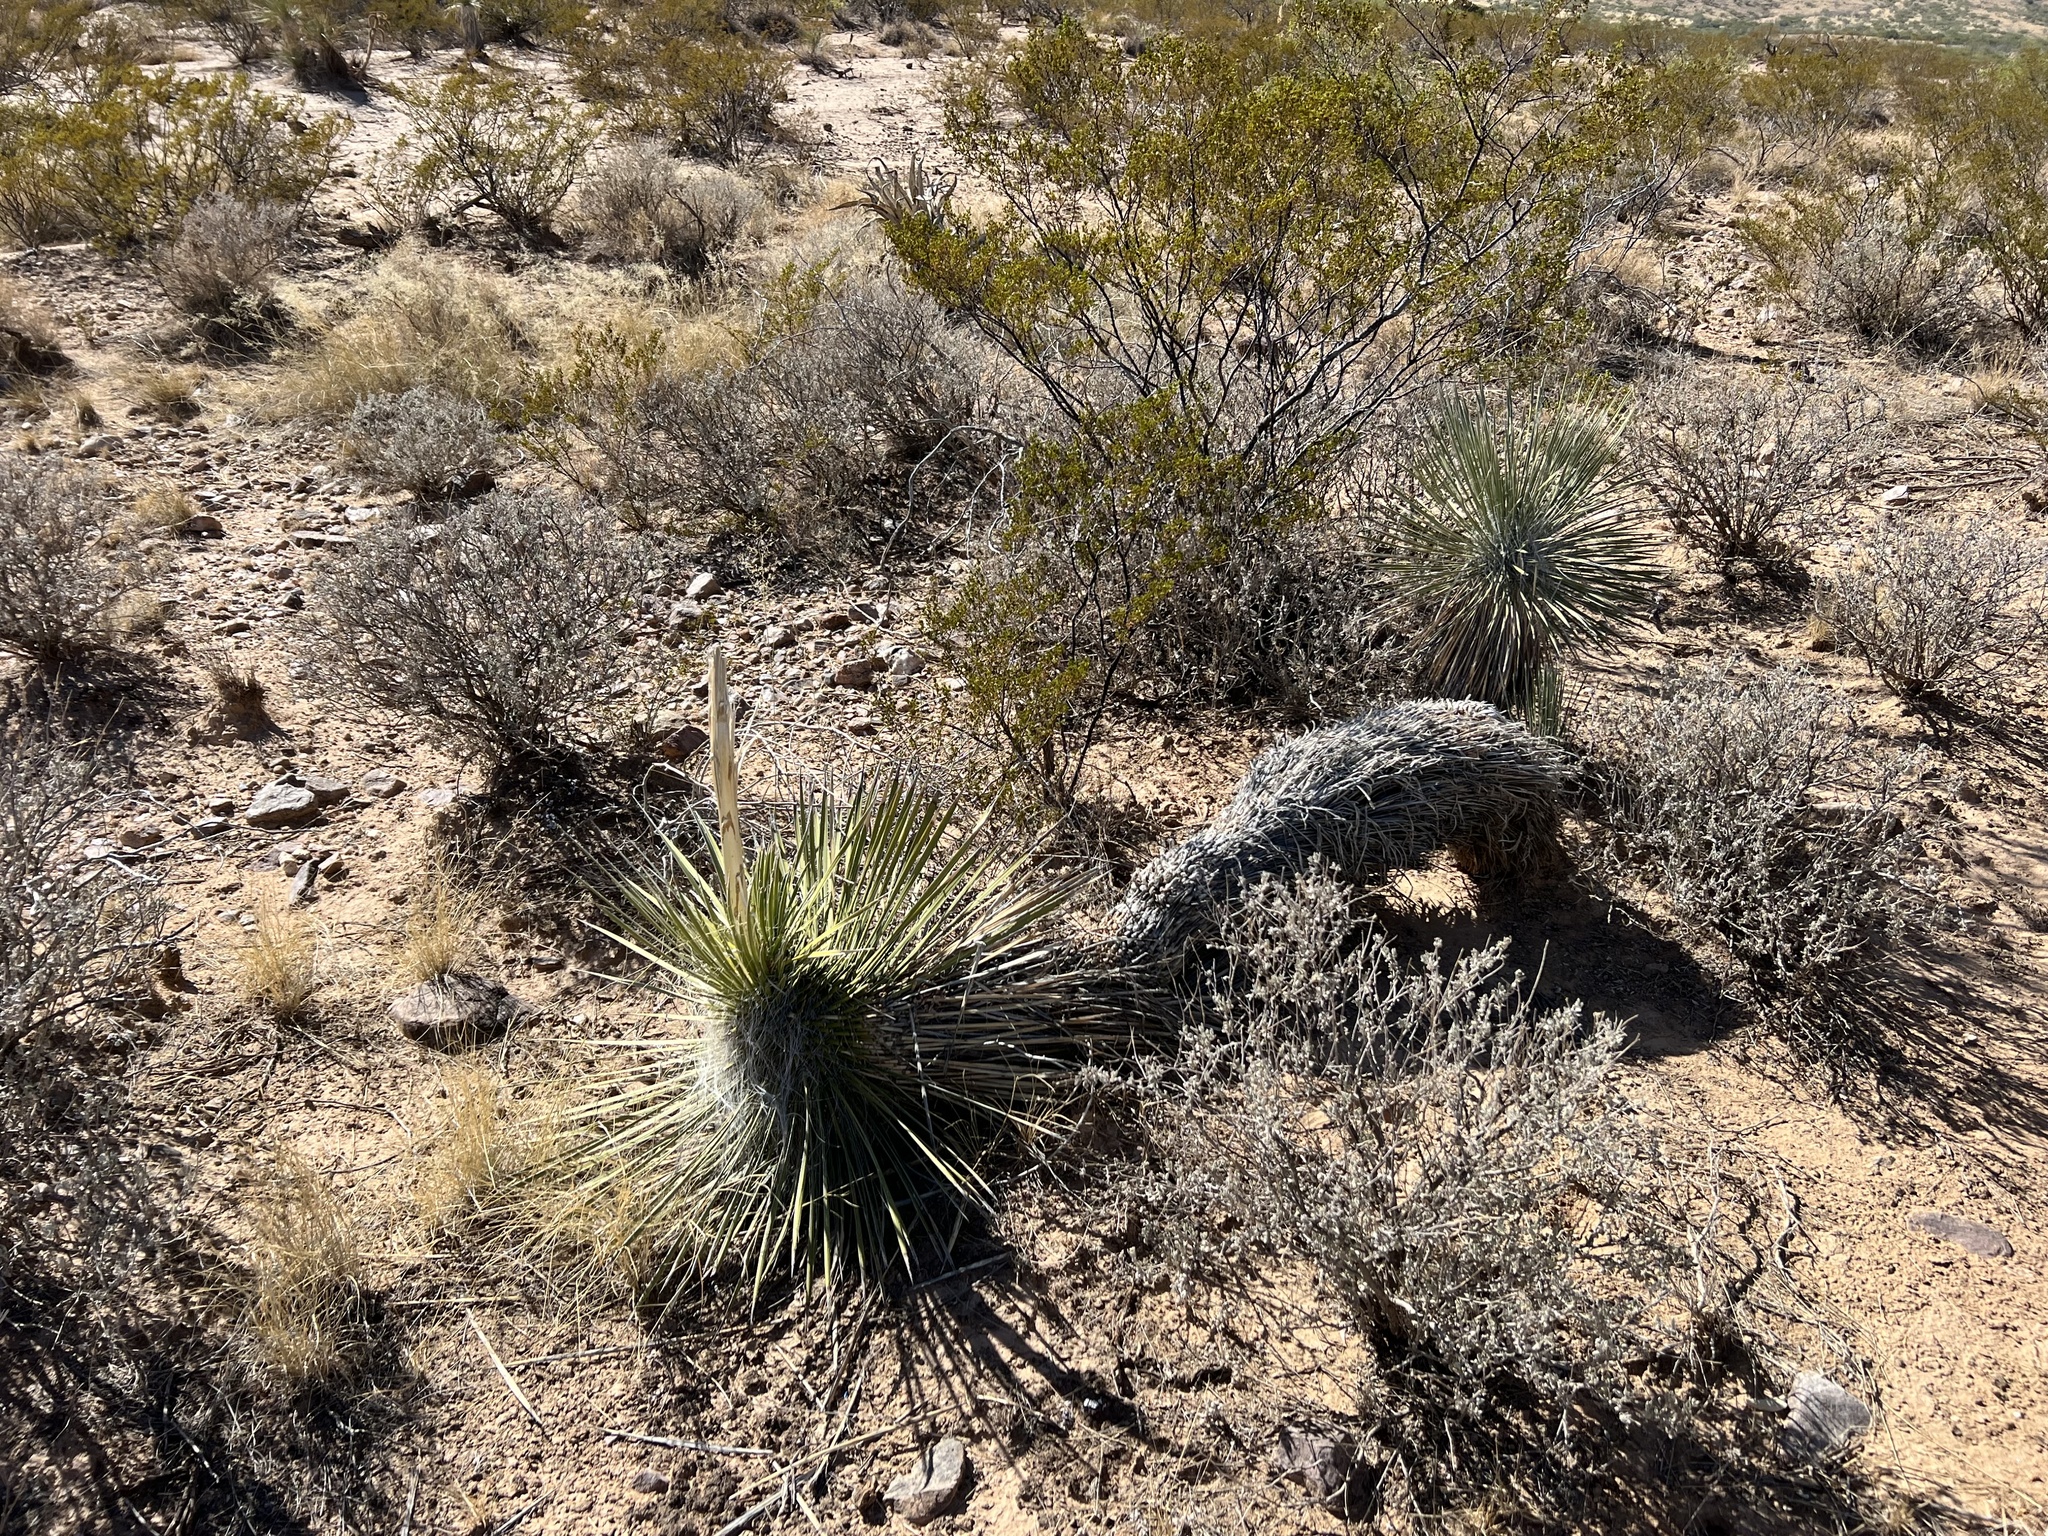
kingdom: Plantae
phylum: Tracheophyta
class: Liliopsida
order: Asparagales
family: Asparagaceae
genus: Yucca
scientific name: Yucca elata
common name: Palmella
